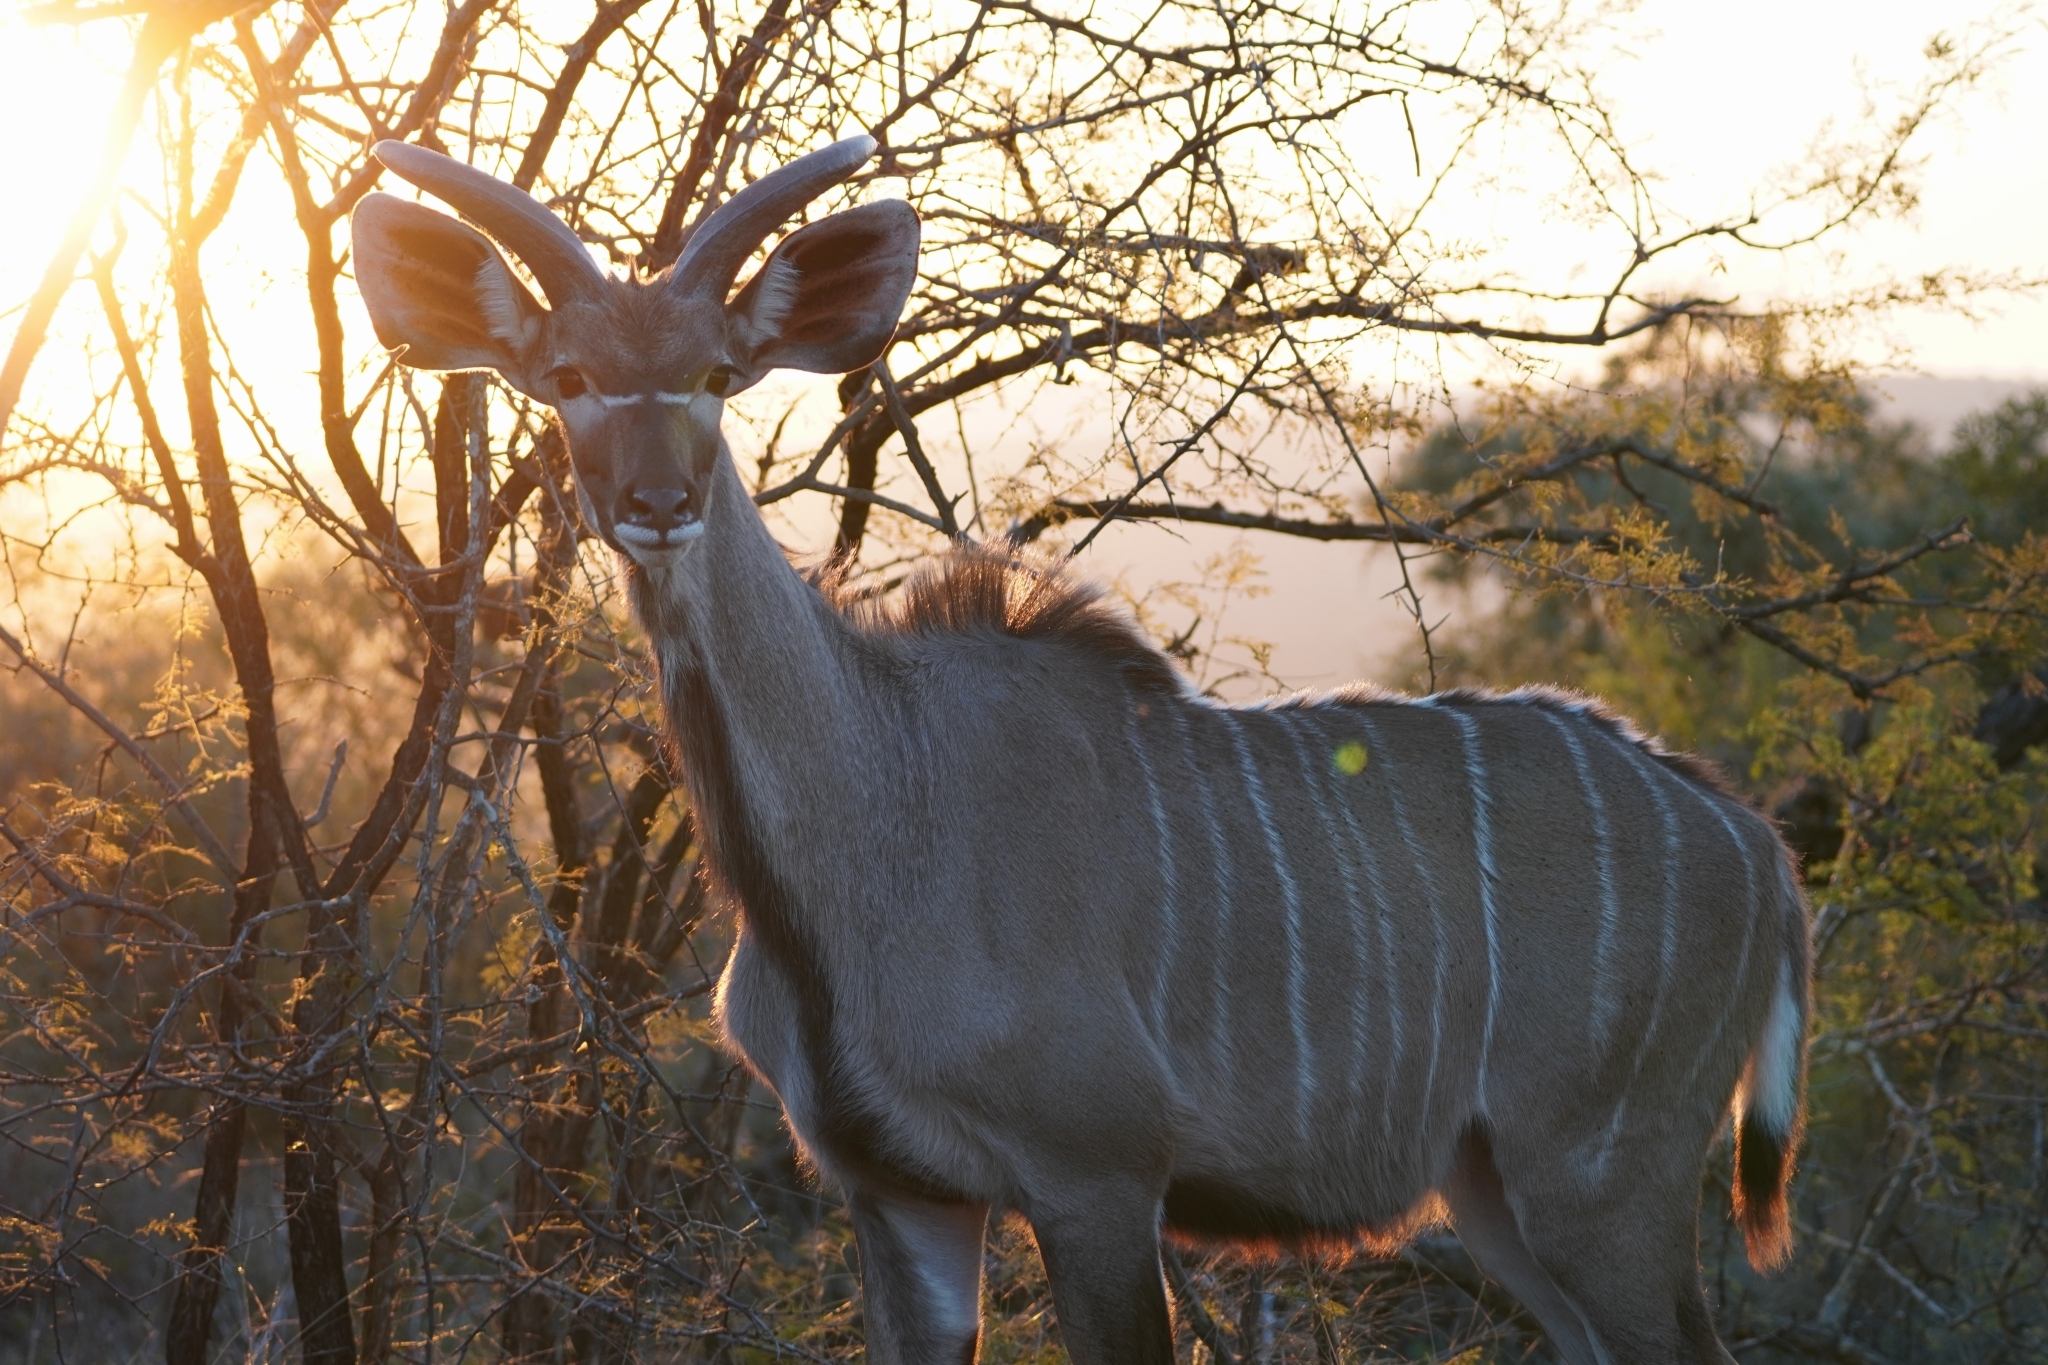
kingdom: Animalia
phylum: Chordata
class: Mammalia
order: Artiodactyla
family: Bovidae
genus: Tragelaphus
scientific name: Tragelaphus strepsiceros
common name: Greater kudu
